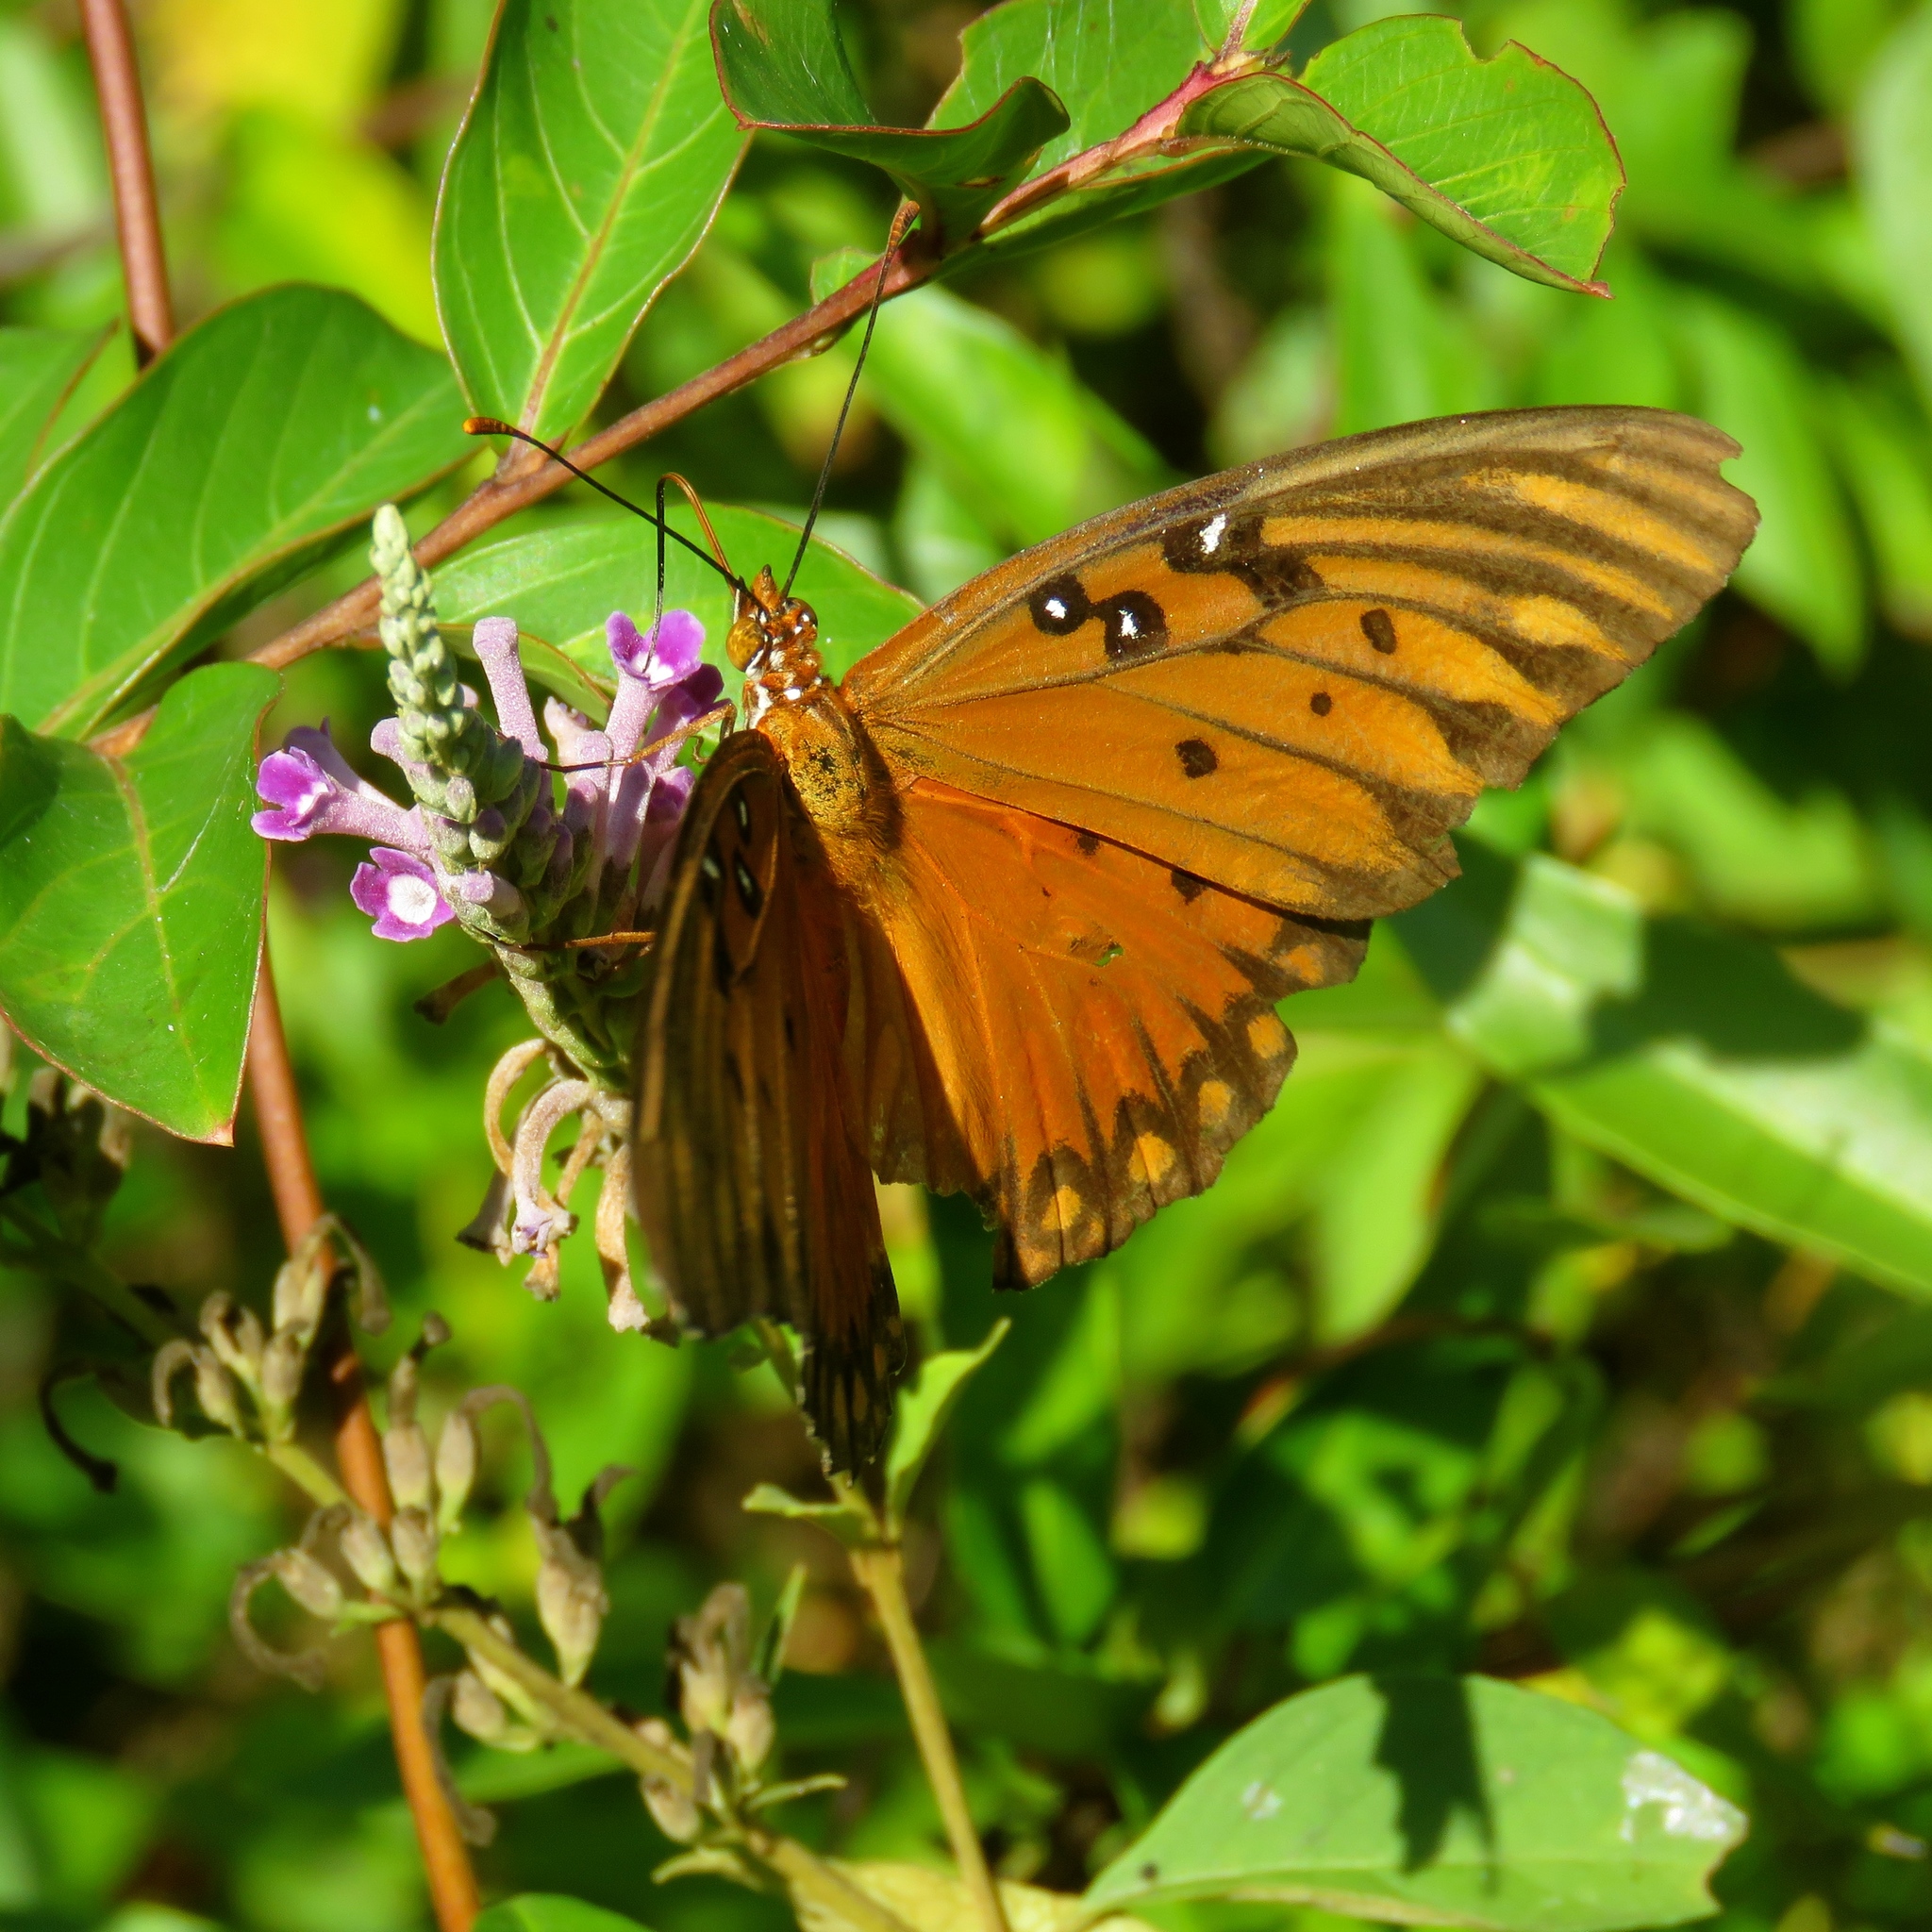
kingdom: Animalia
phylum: Arthropoda
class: Insecta
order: Lepidoptera
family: Nymphalidae
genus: Dione
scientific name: Dione vanillae
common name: Gulf fritillary
